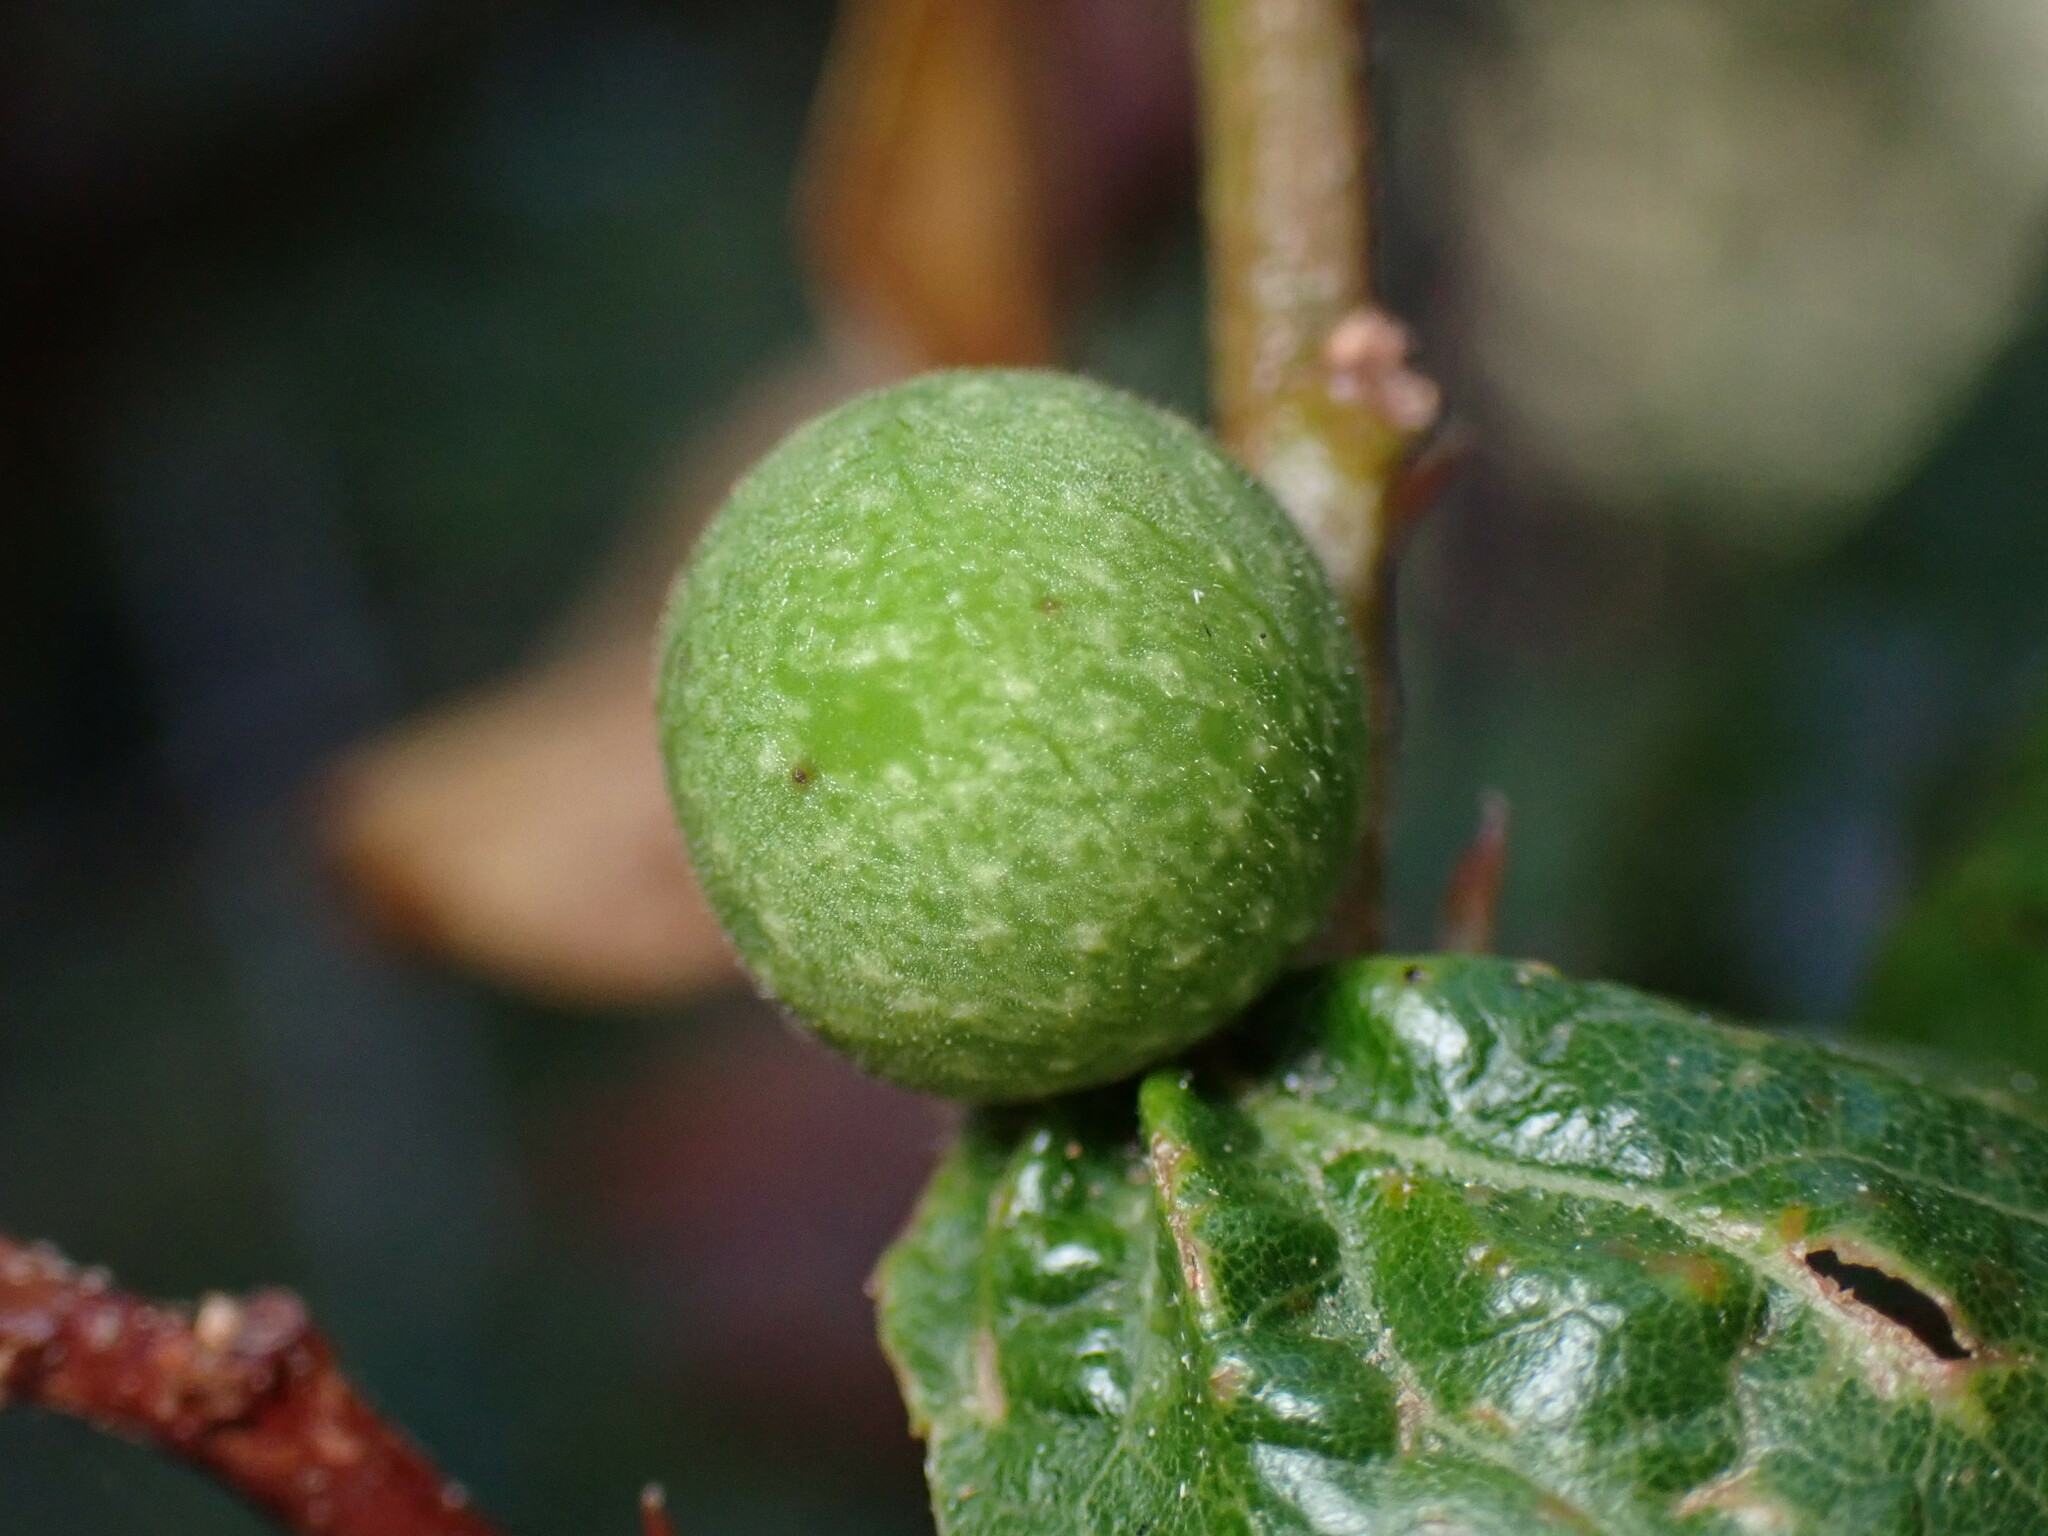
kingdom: Animalia
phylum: Arthropoda
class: Insecta
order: Hymenoptera
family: Cynipidae
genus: Callirhytis
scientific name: Callirhytis
